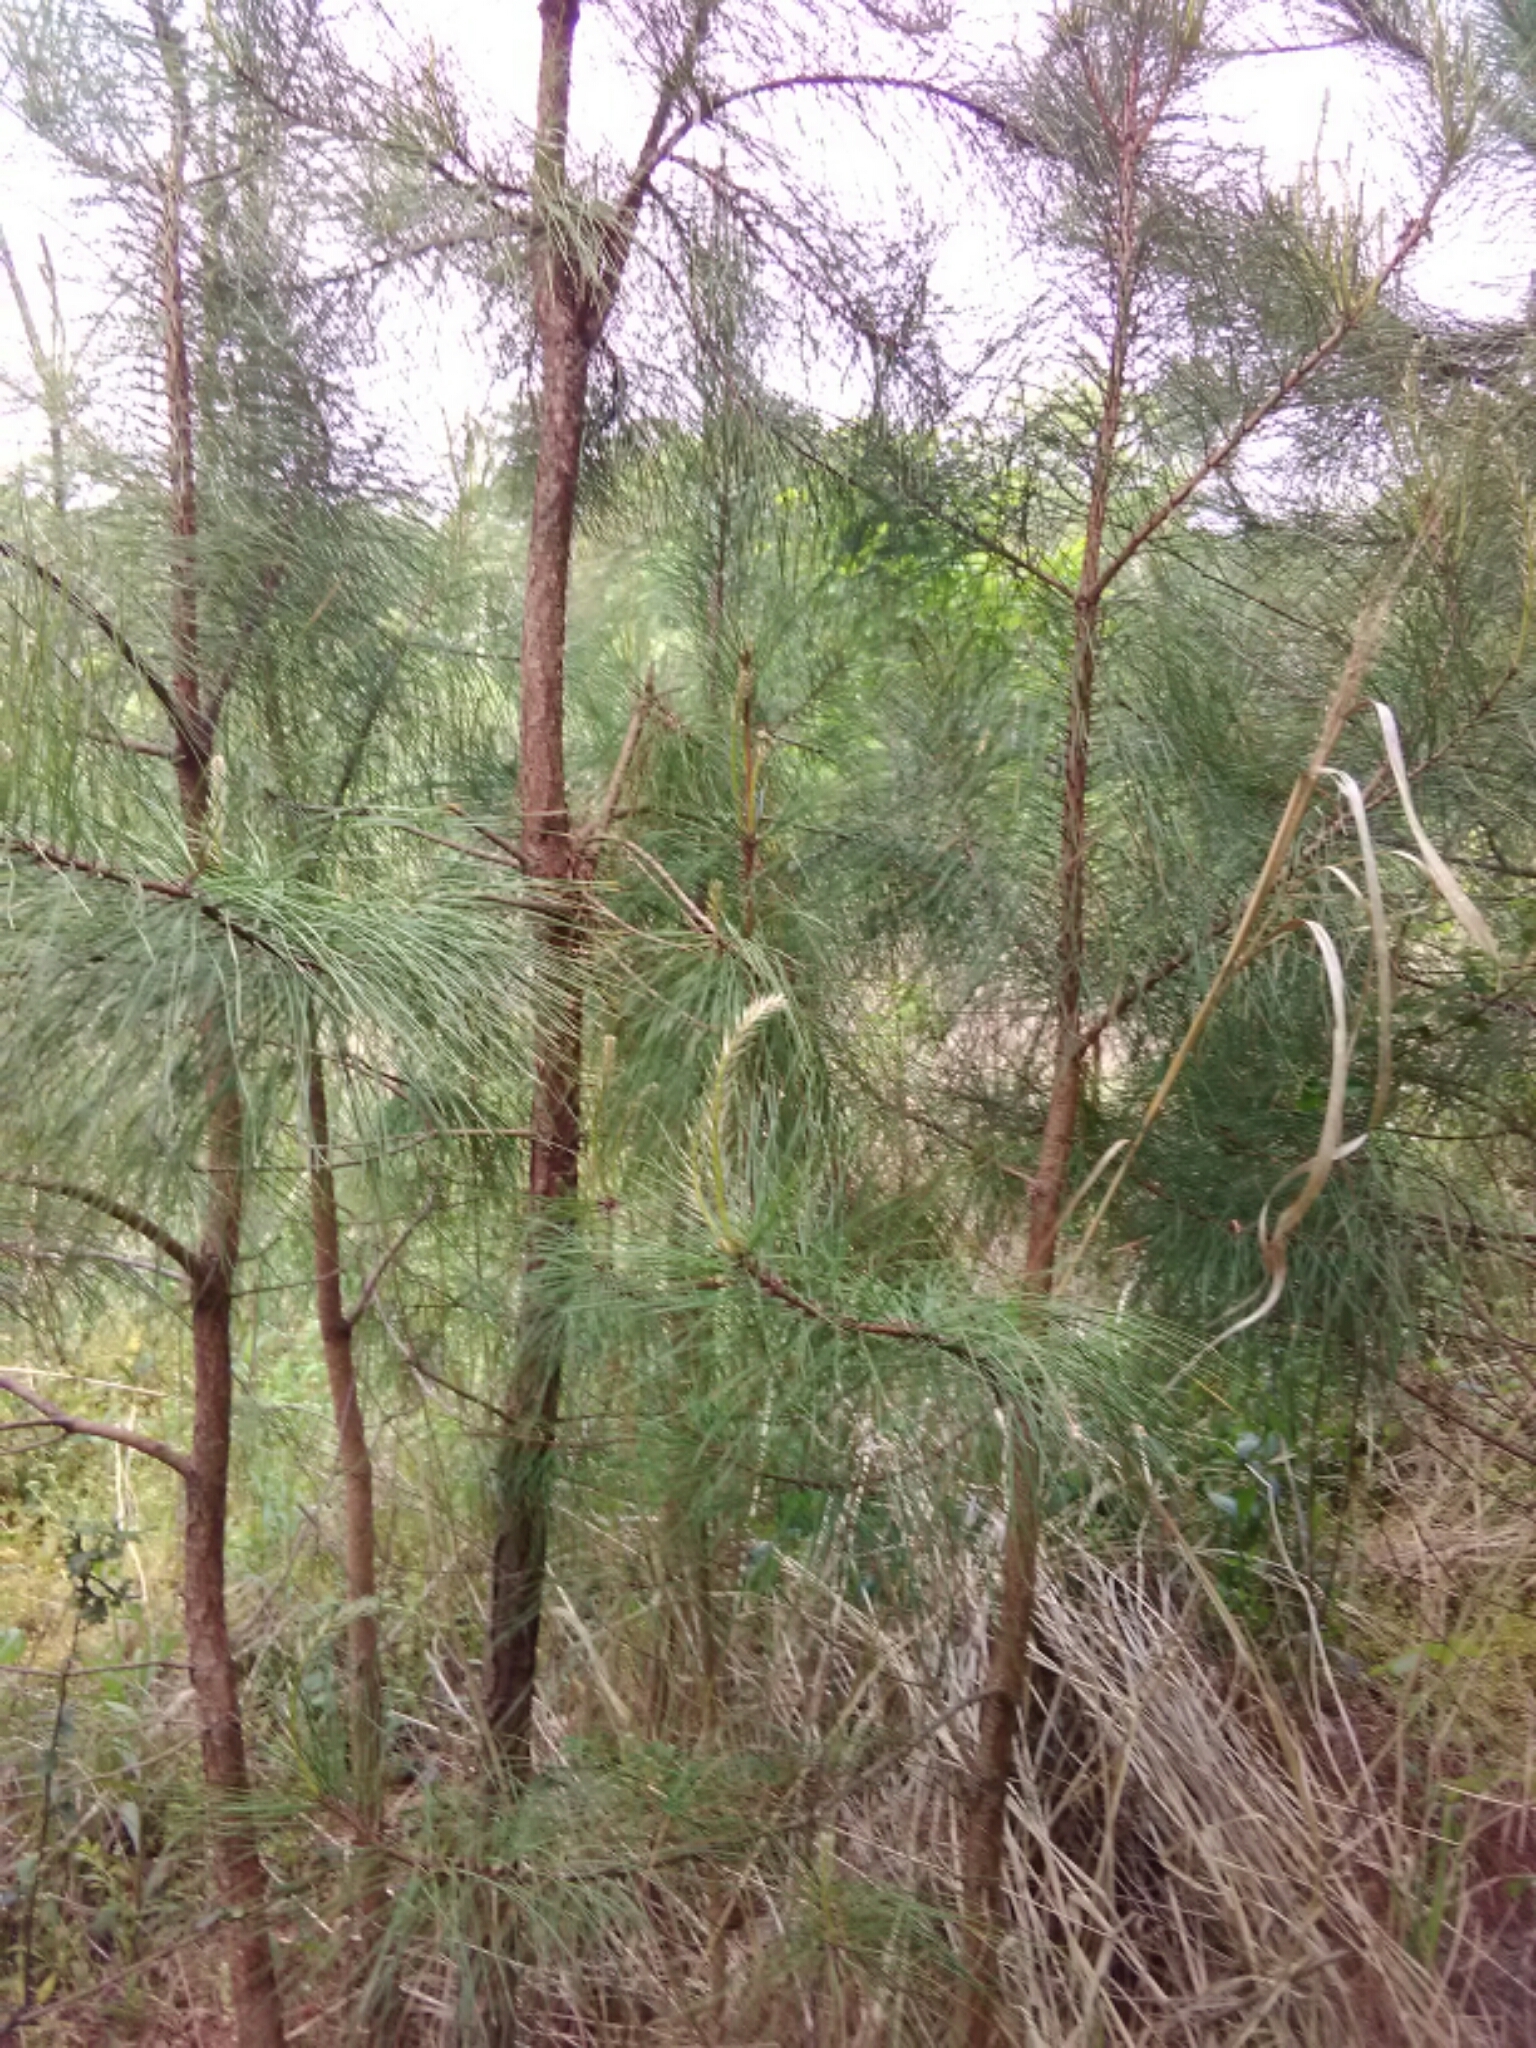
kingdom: Plantae
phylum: Tracheophyta
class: Pinopsida
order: Pinales
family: Pinaceae
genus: Pinus
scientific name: Pinus taeda
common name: Loblolly pine
